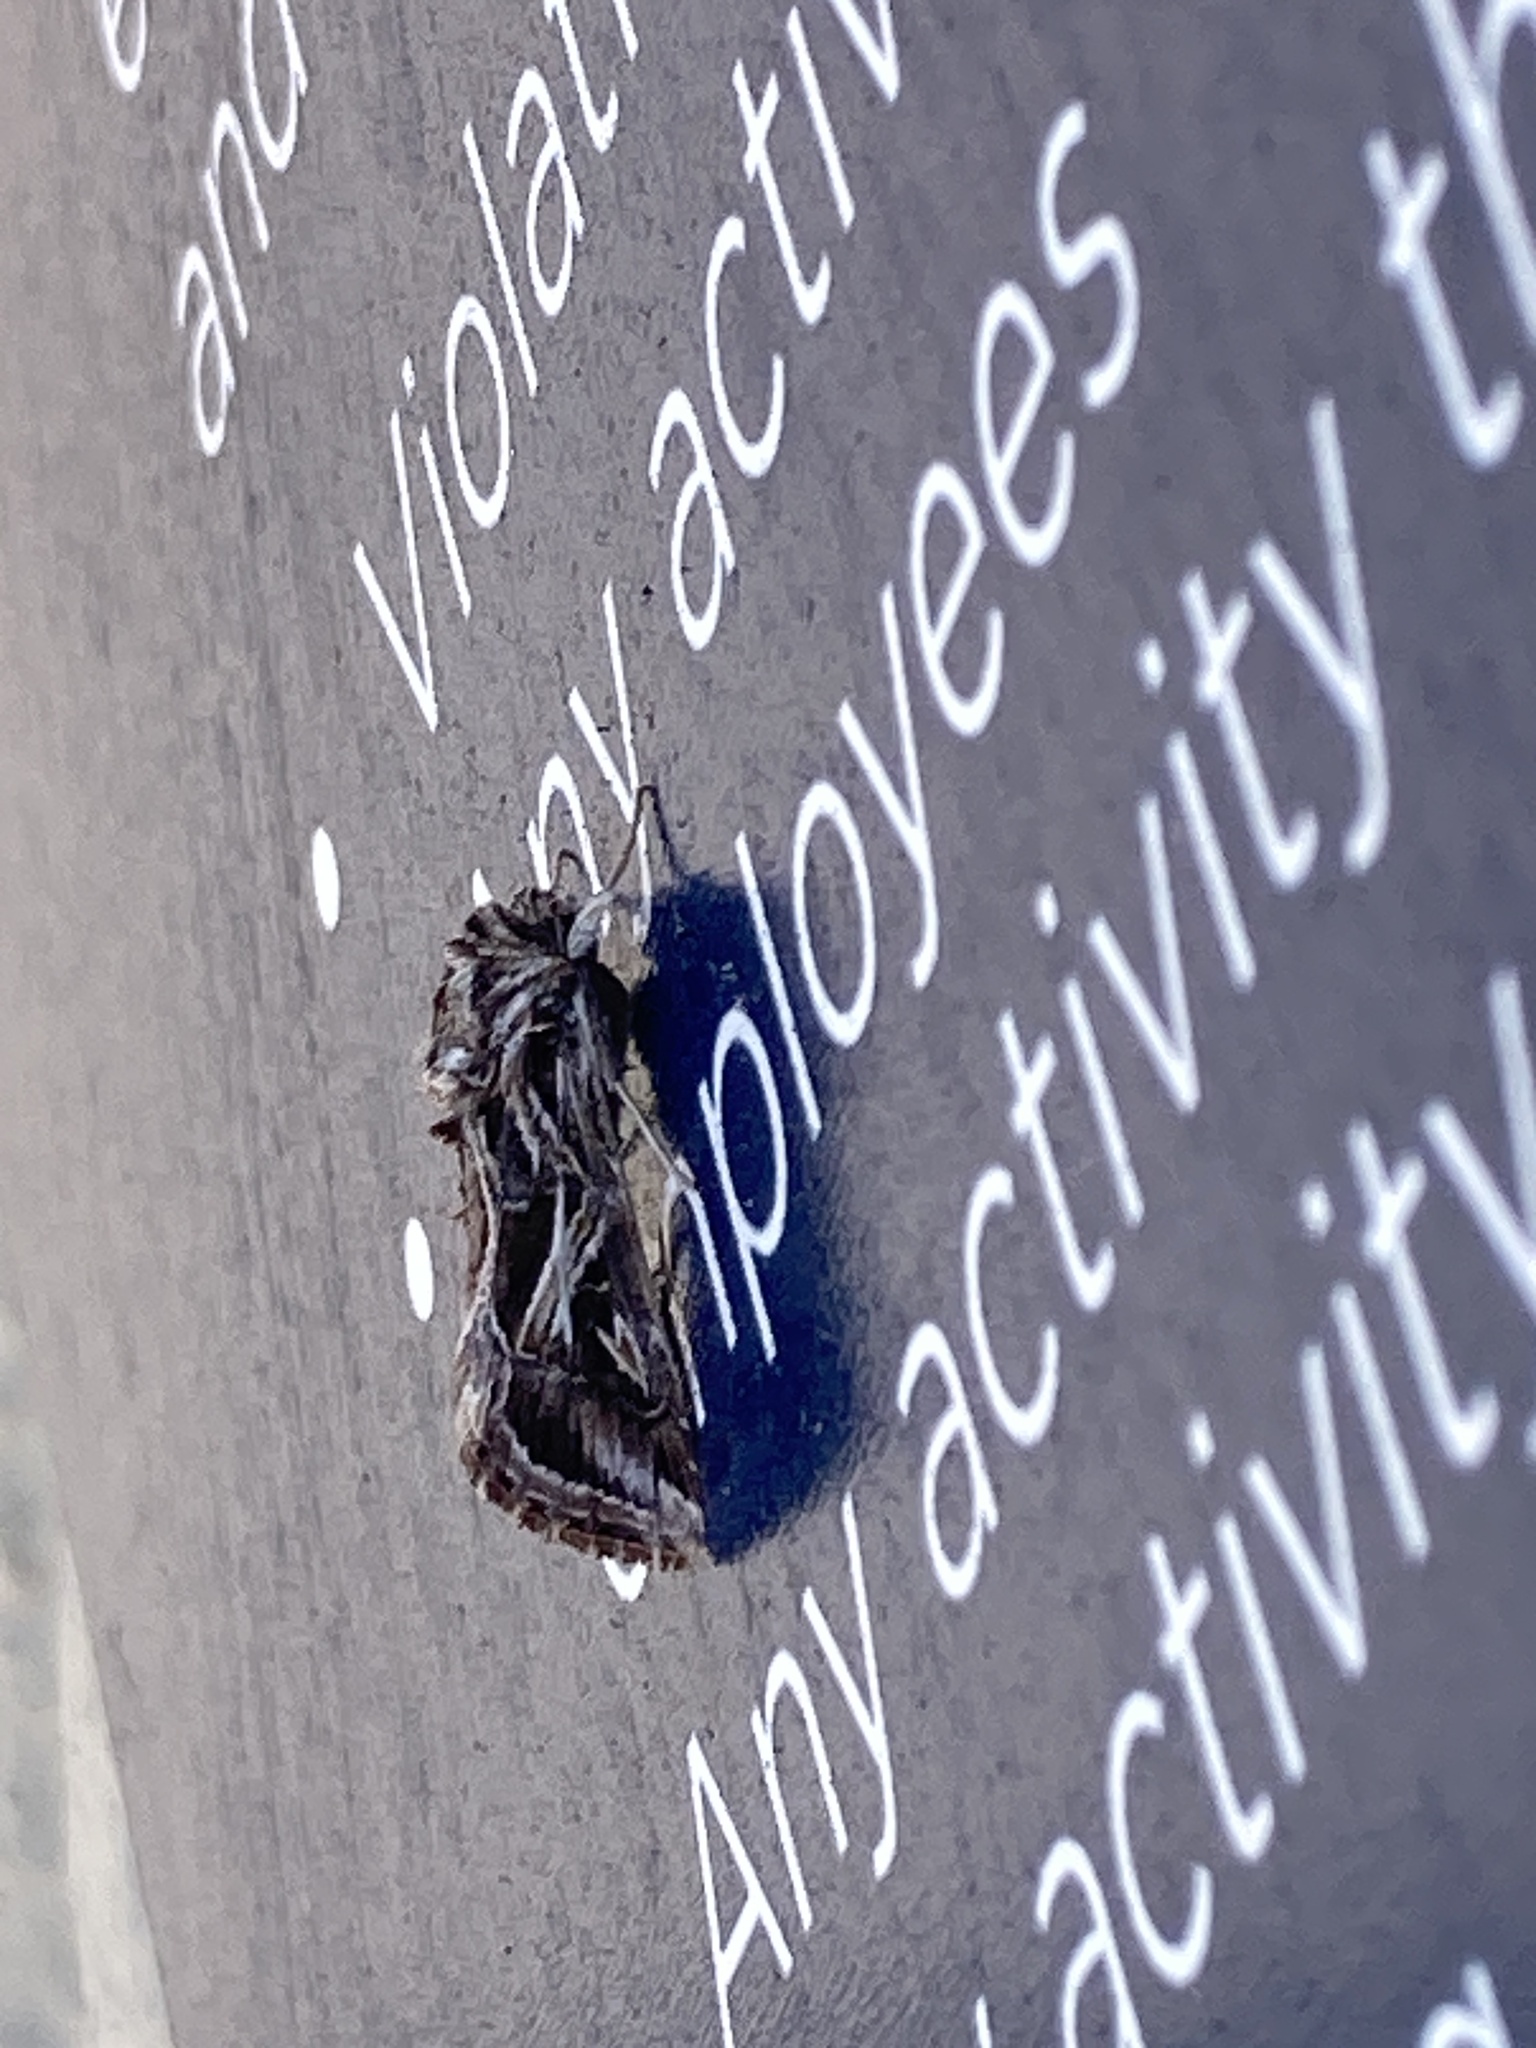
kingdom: Animalia
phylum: Arthropoda
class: Insecta
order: Lepidoptera
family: Noctuidae
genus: Spodoptera
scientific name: Spodoptera pulchella
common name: Caribbean armyworm moth
